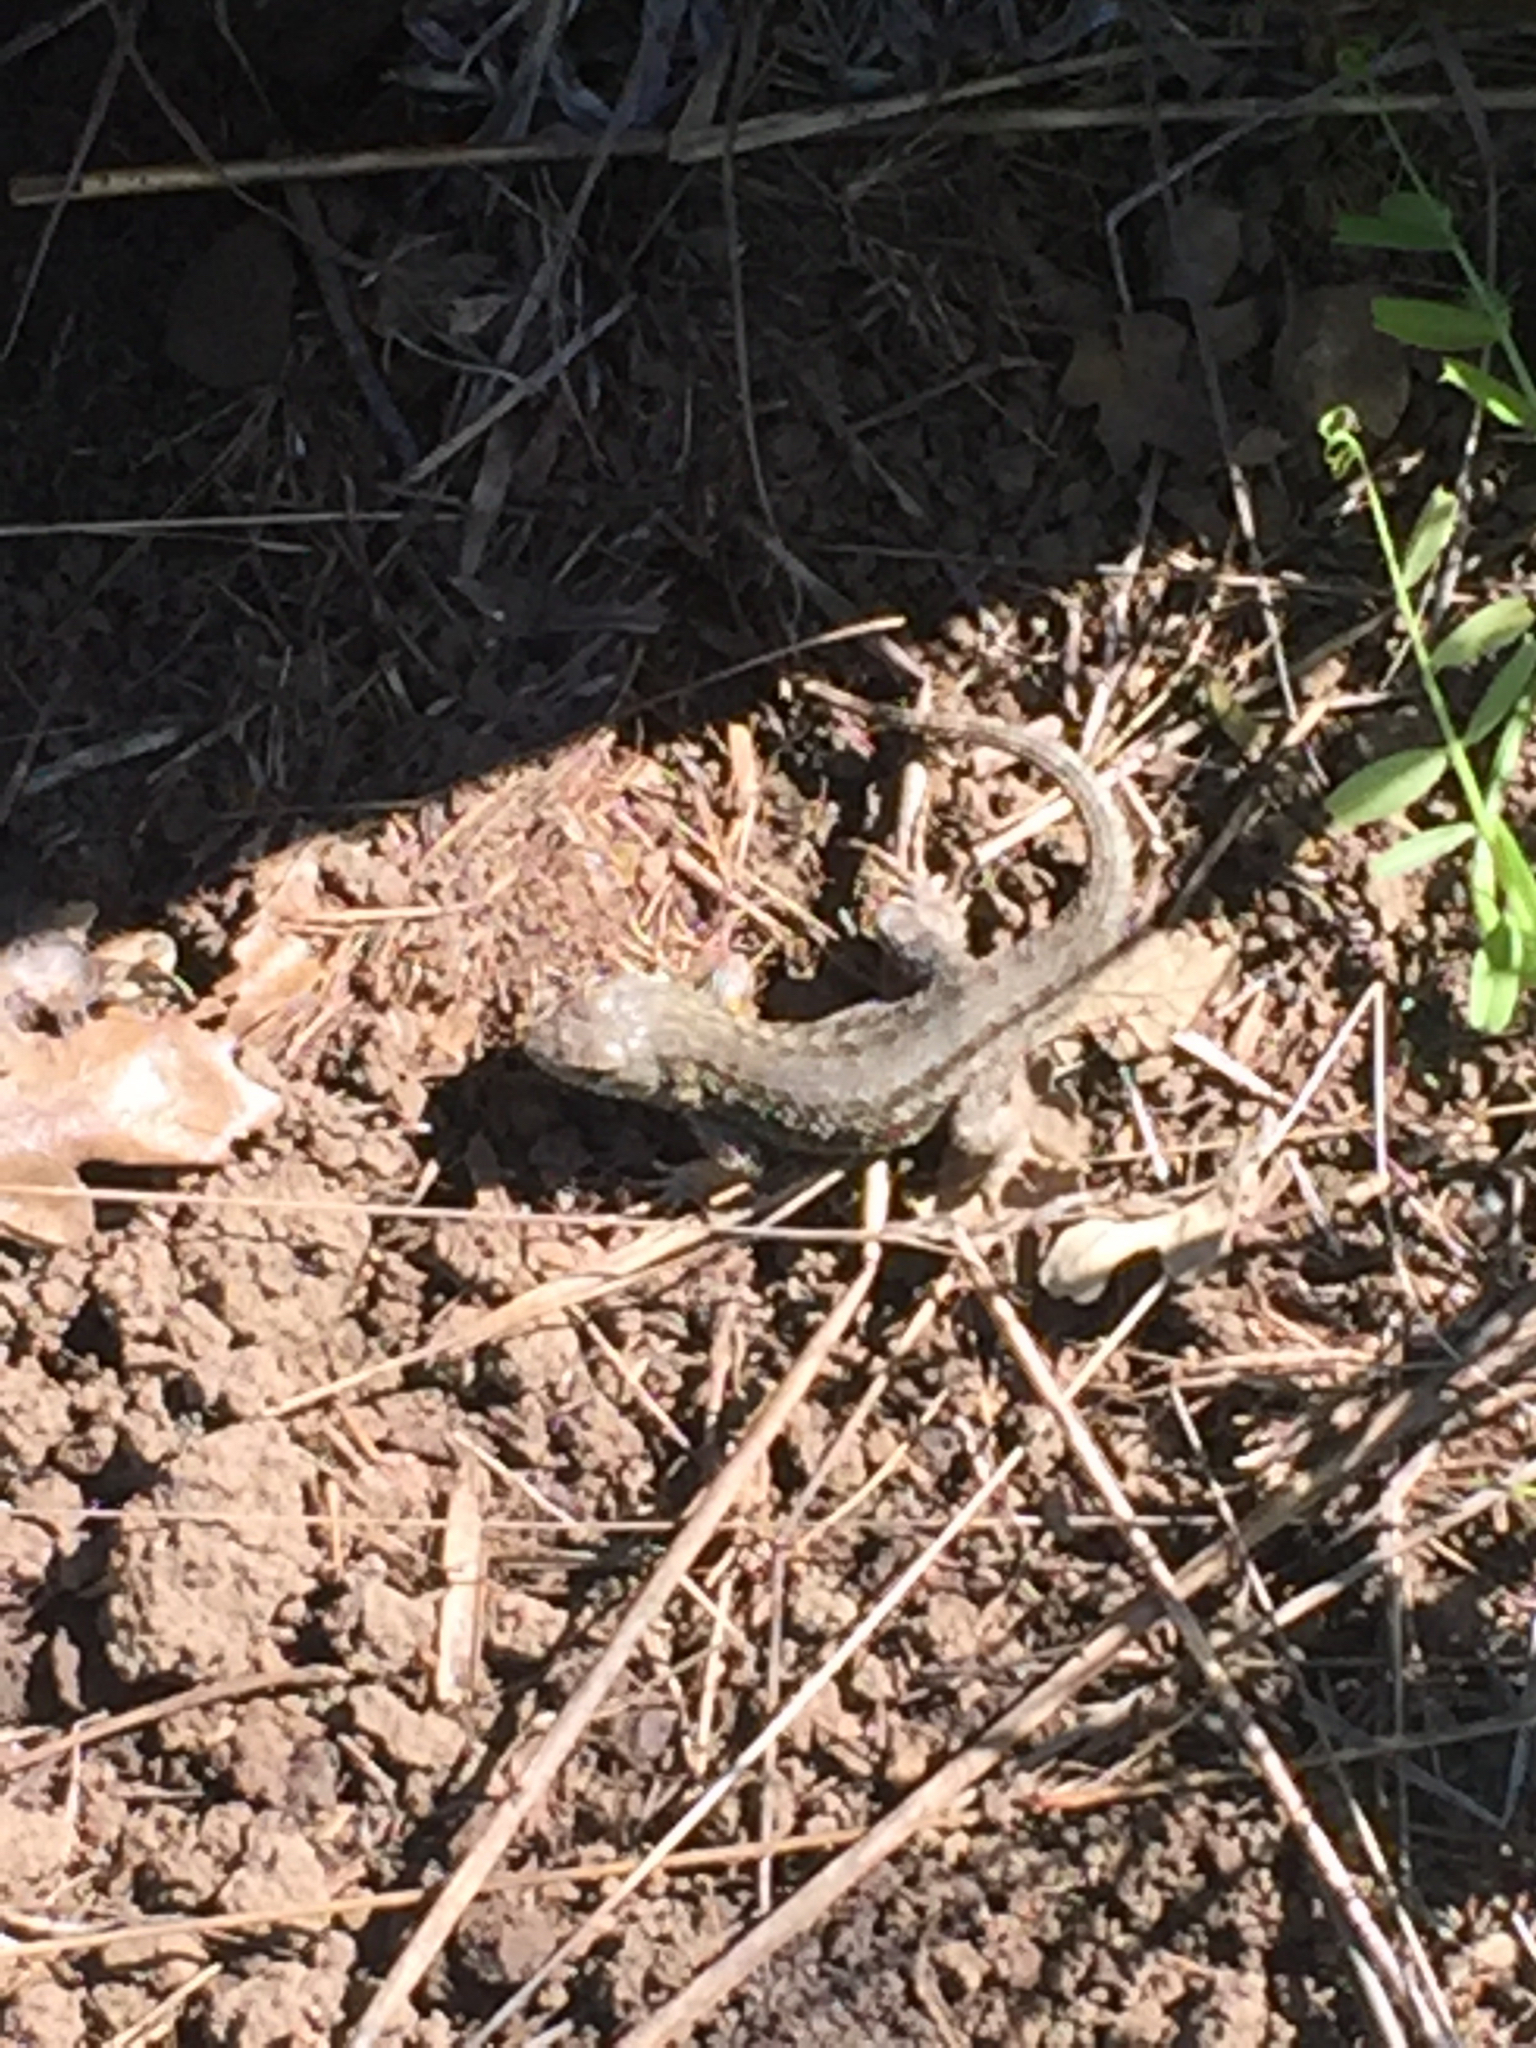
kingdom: Animalia
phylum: Chordata
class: Squamata
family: Phrynosomatidae
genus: Sceloporus
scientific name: Sceloporus occidentalis
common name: Western fence lizard
